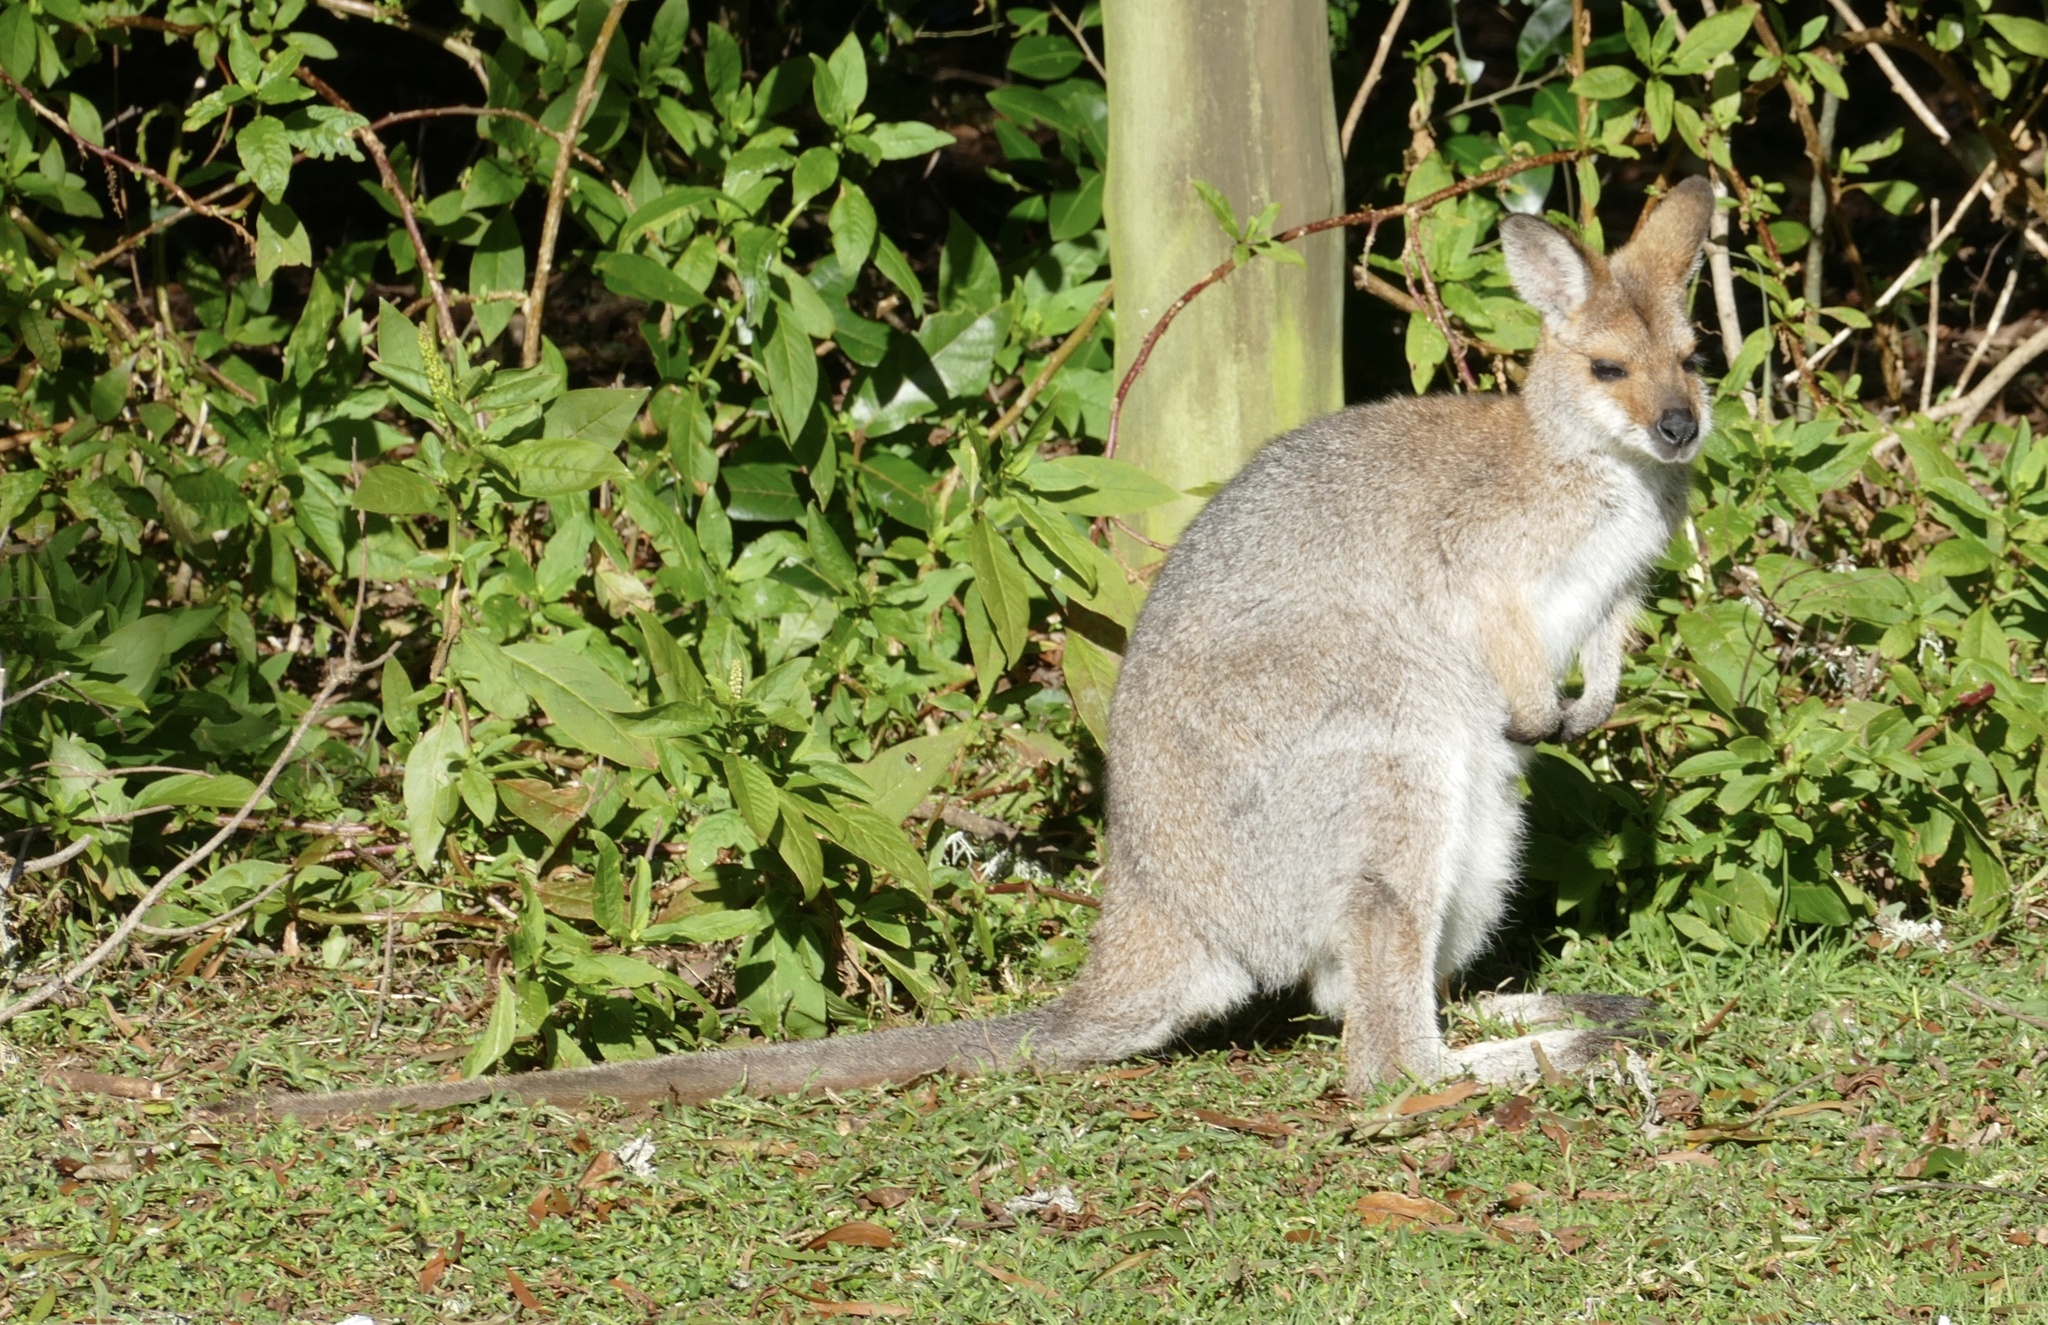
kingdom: Animalia
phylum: Chordata
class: Mammalia
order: Diprotodontia
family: Macropodidae
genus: Notamacropus
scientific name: Notamacropus rufogriseus
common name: Red-necked wallaby
